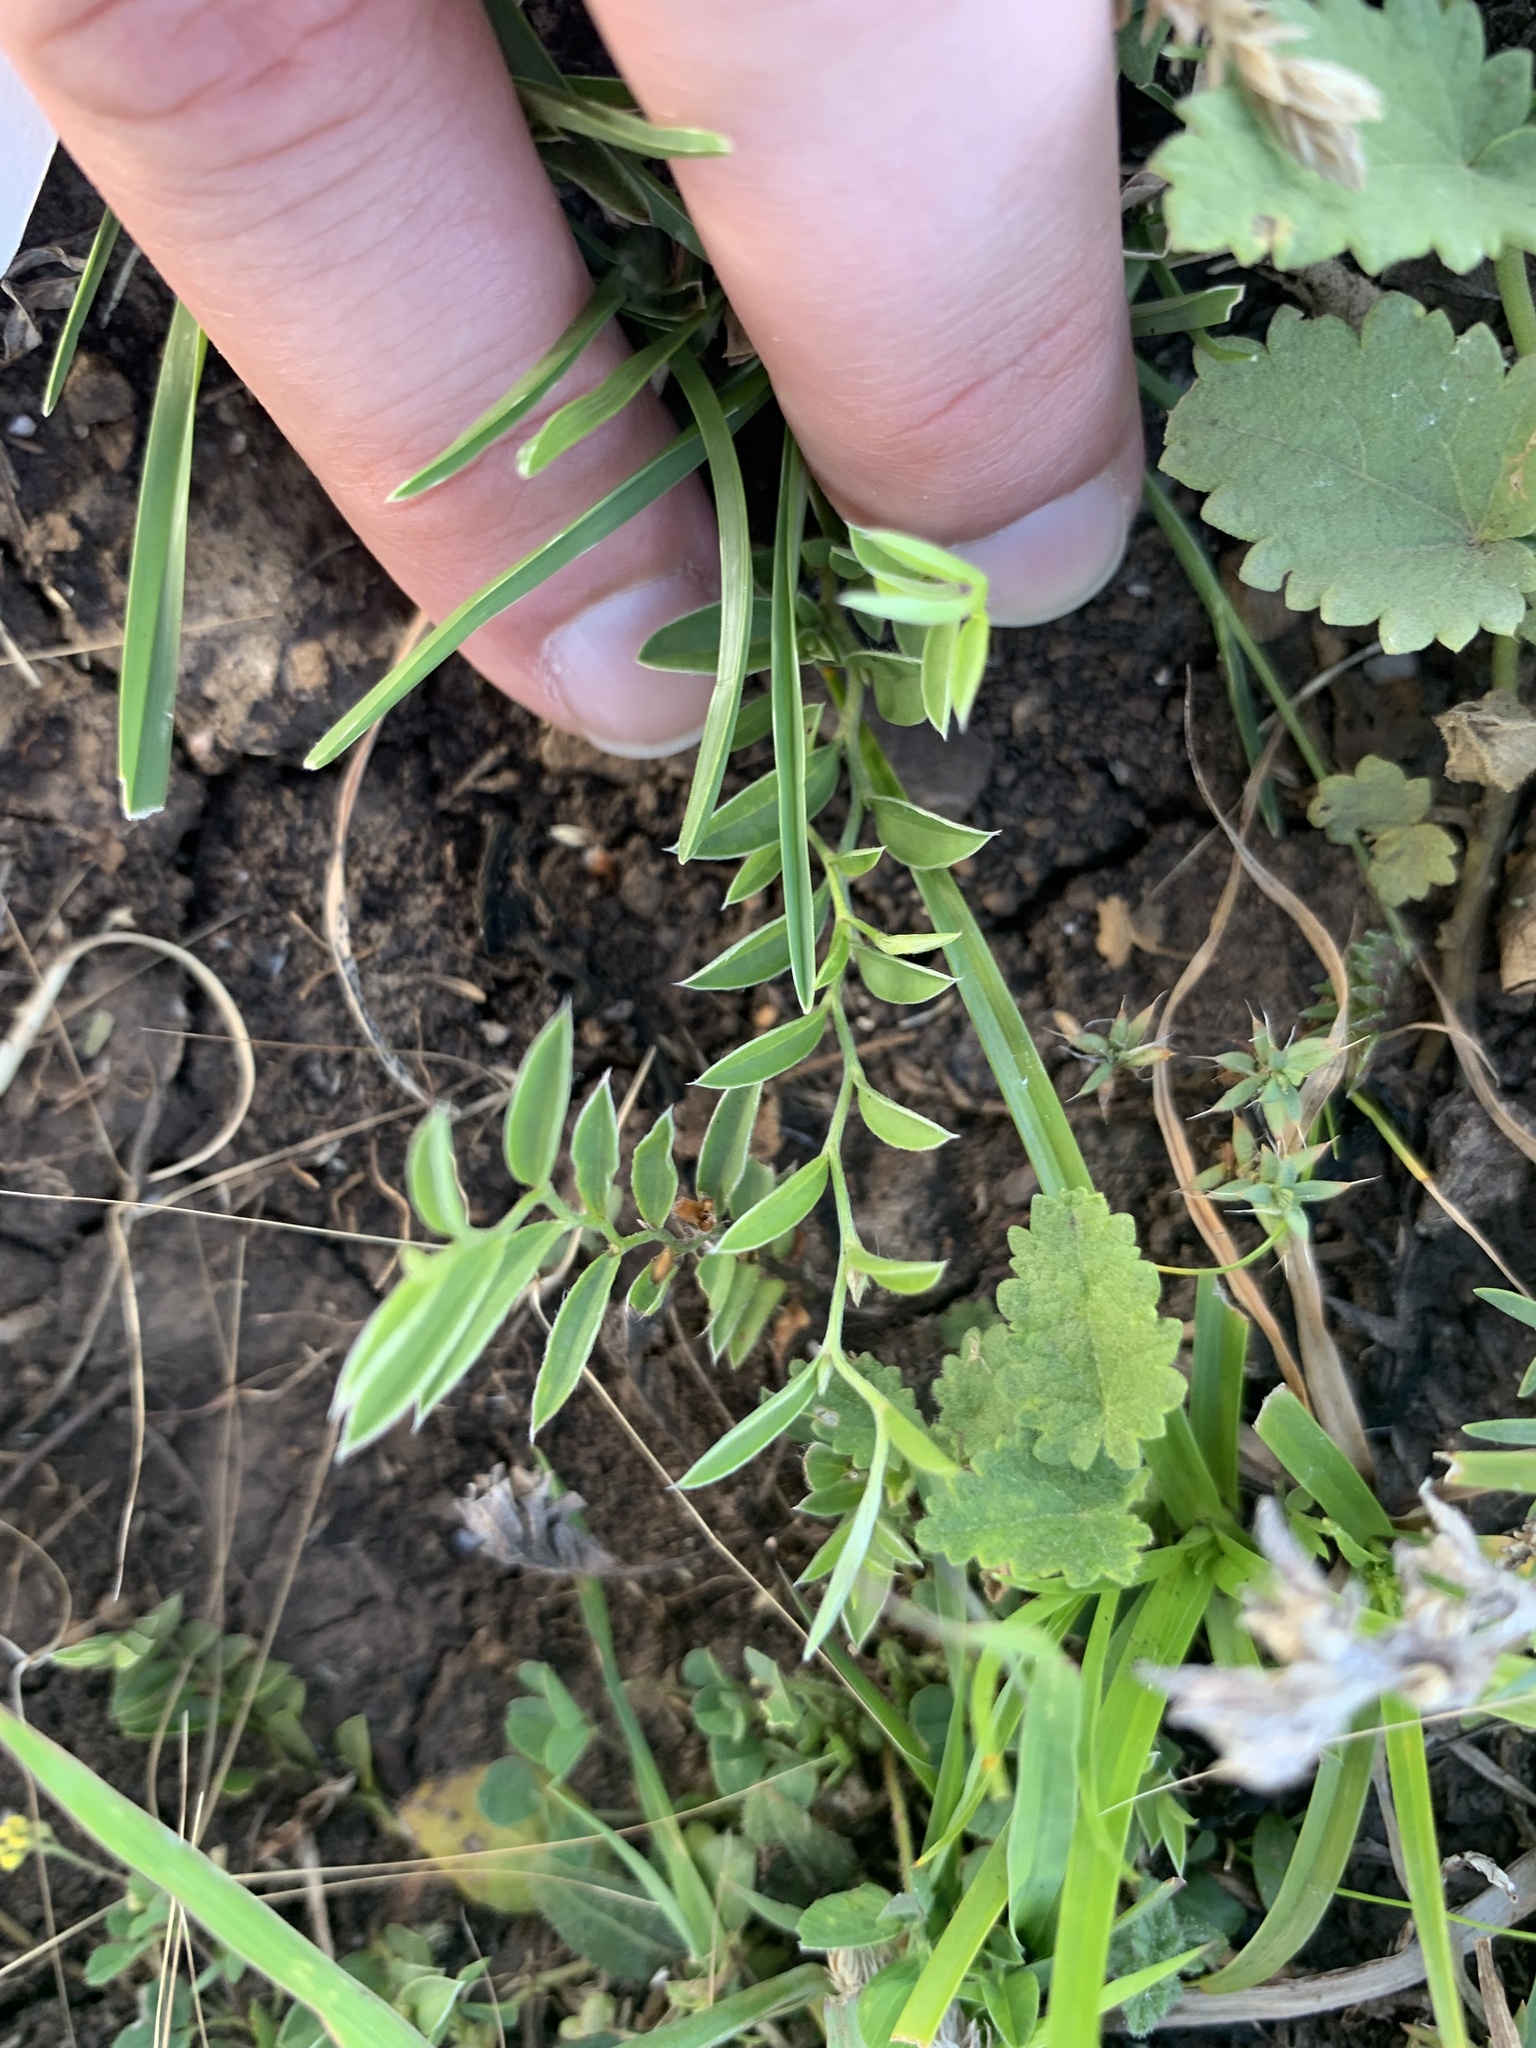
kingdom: Plantae
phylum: Tracheophyta
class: Magnoliopsida
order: Solanales
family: Convolvulaceae
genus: Evolvulus
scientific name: Evolvulus sericeus
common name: Blue dots
